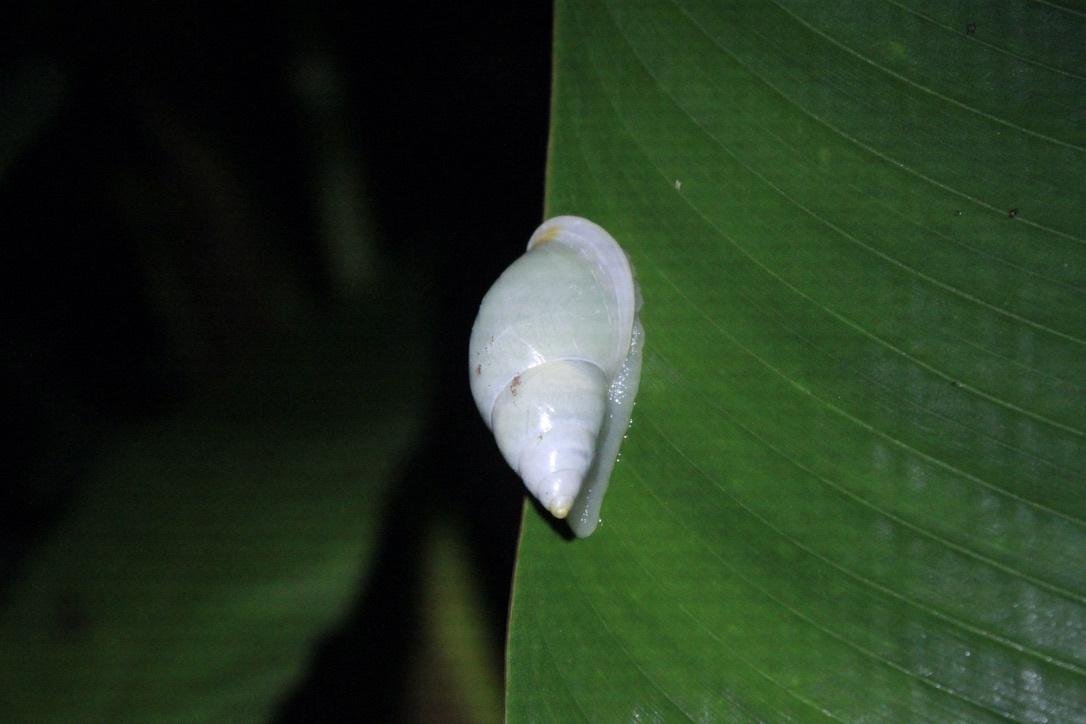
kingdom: Animalia
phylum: Mollusca
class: Gastropoda
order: Stylommatophora
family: Bulimulidae
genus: Drymaeus
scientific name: Drymaeus
